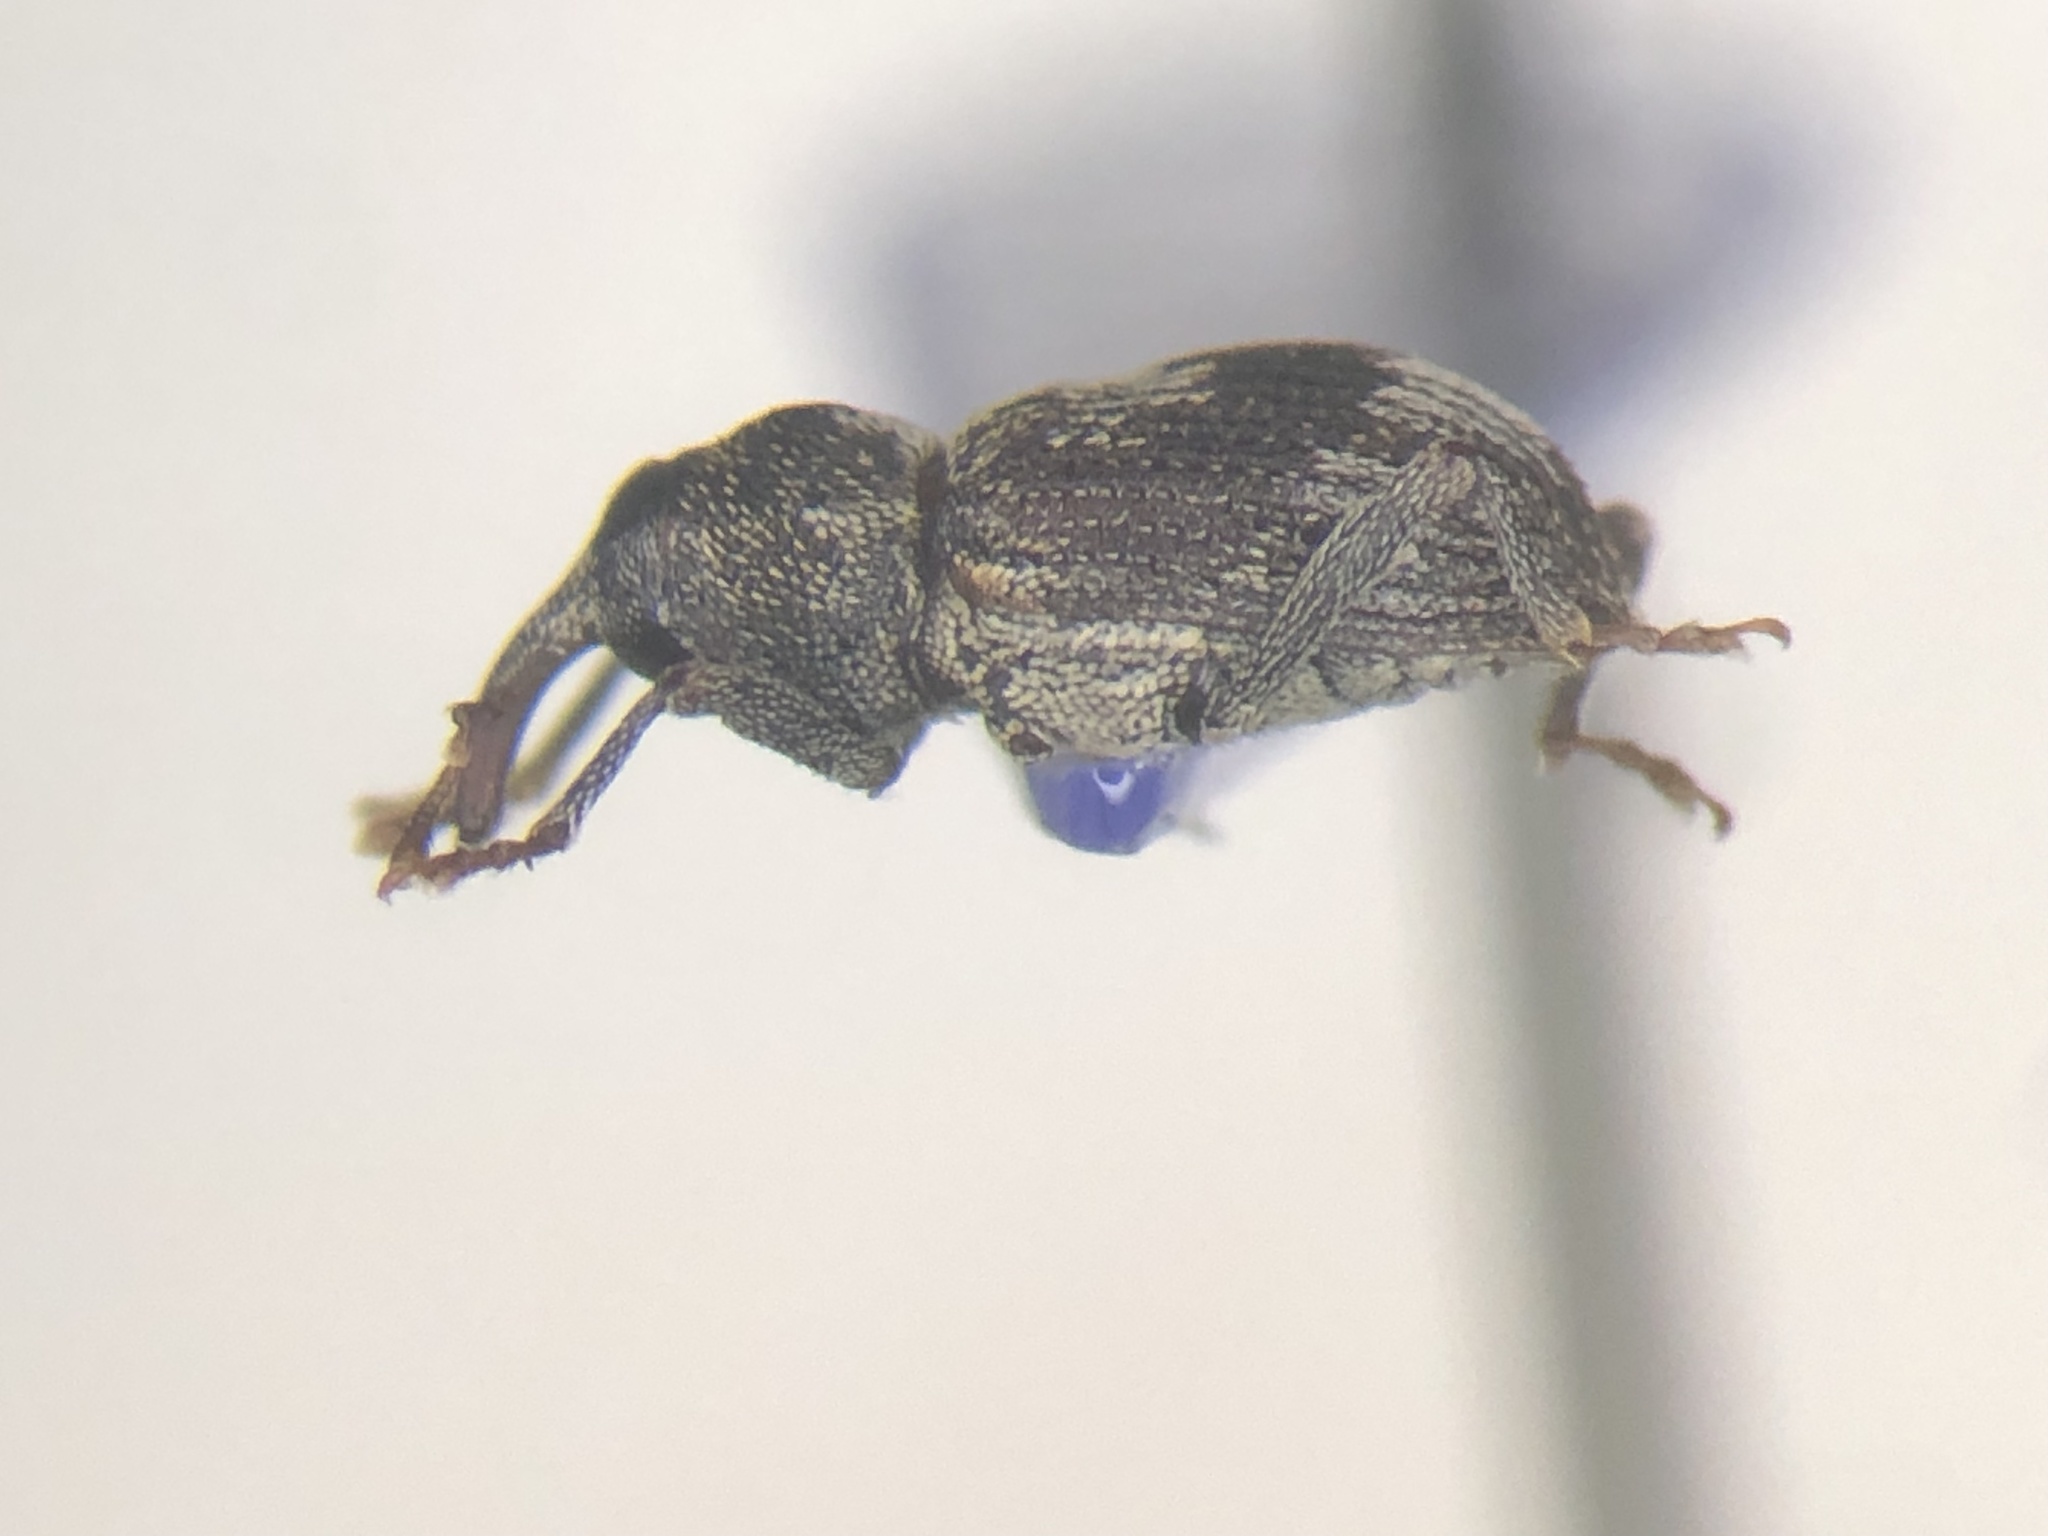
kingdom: Animalia
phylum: Arthropoda
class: Insecta
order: Coleoptera
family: Curculionidae
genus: Acoptus
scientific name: Acoptus suturalis
